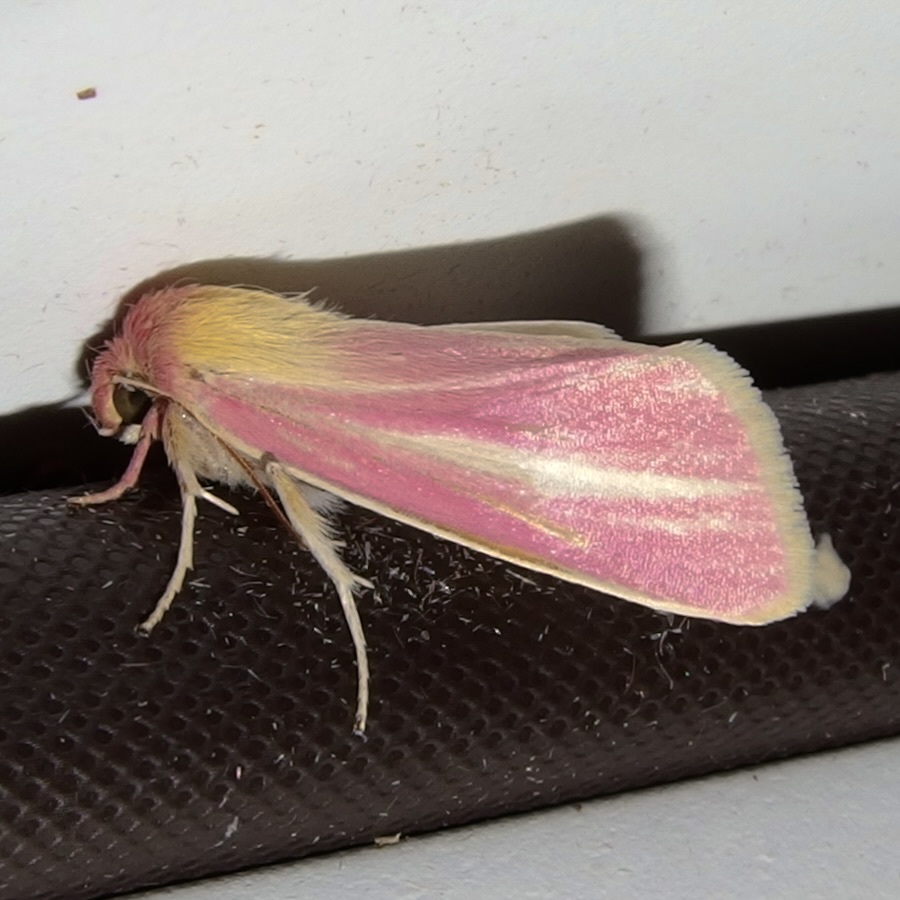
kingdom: Animalia
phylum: Arthropoda
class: Insecta
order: Lepidoptera
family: Noctuidae
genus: Heliocheilus
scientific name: Heliocheilus julia
